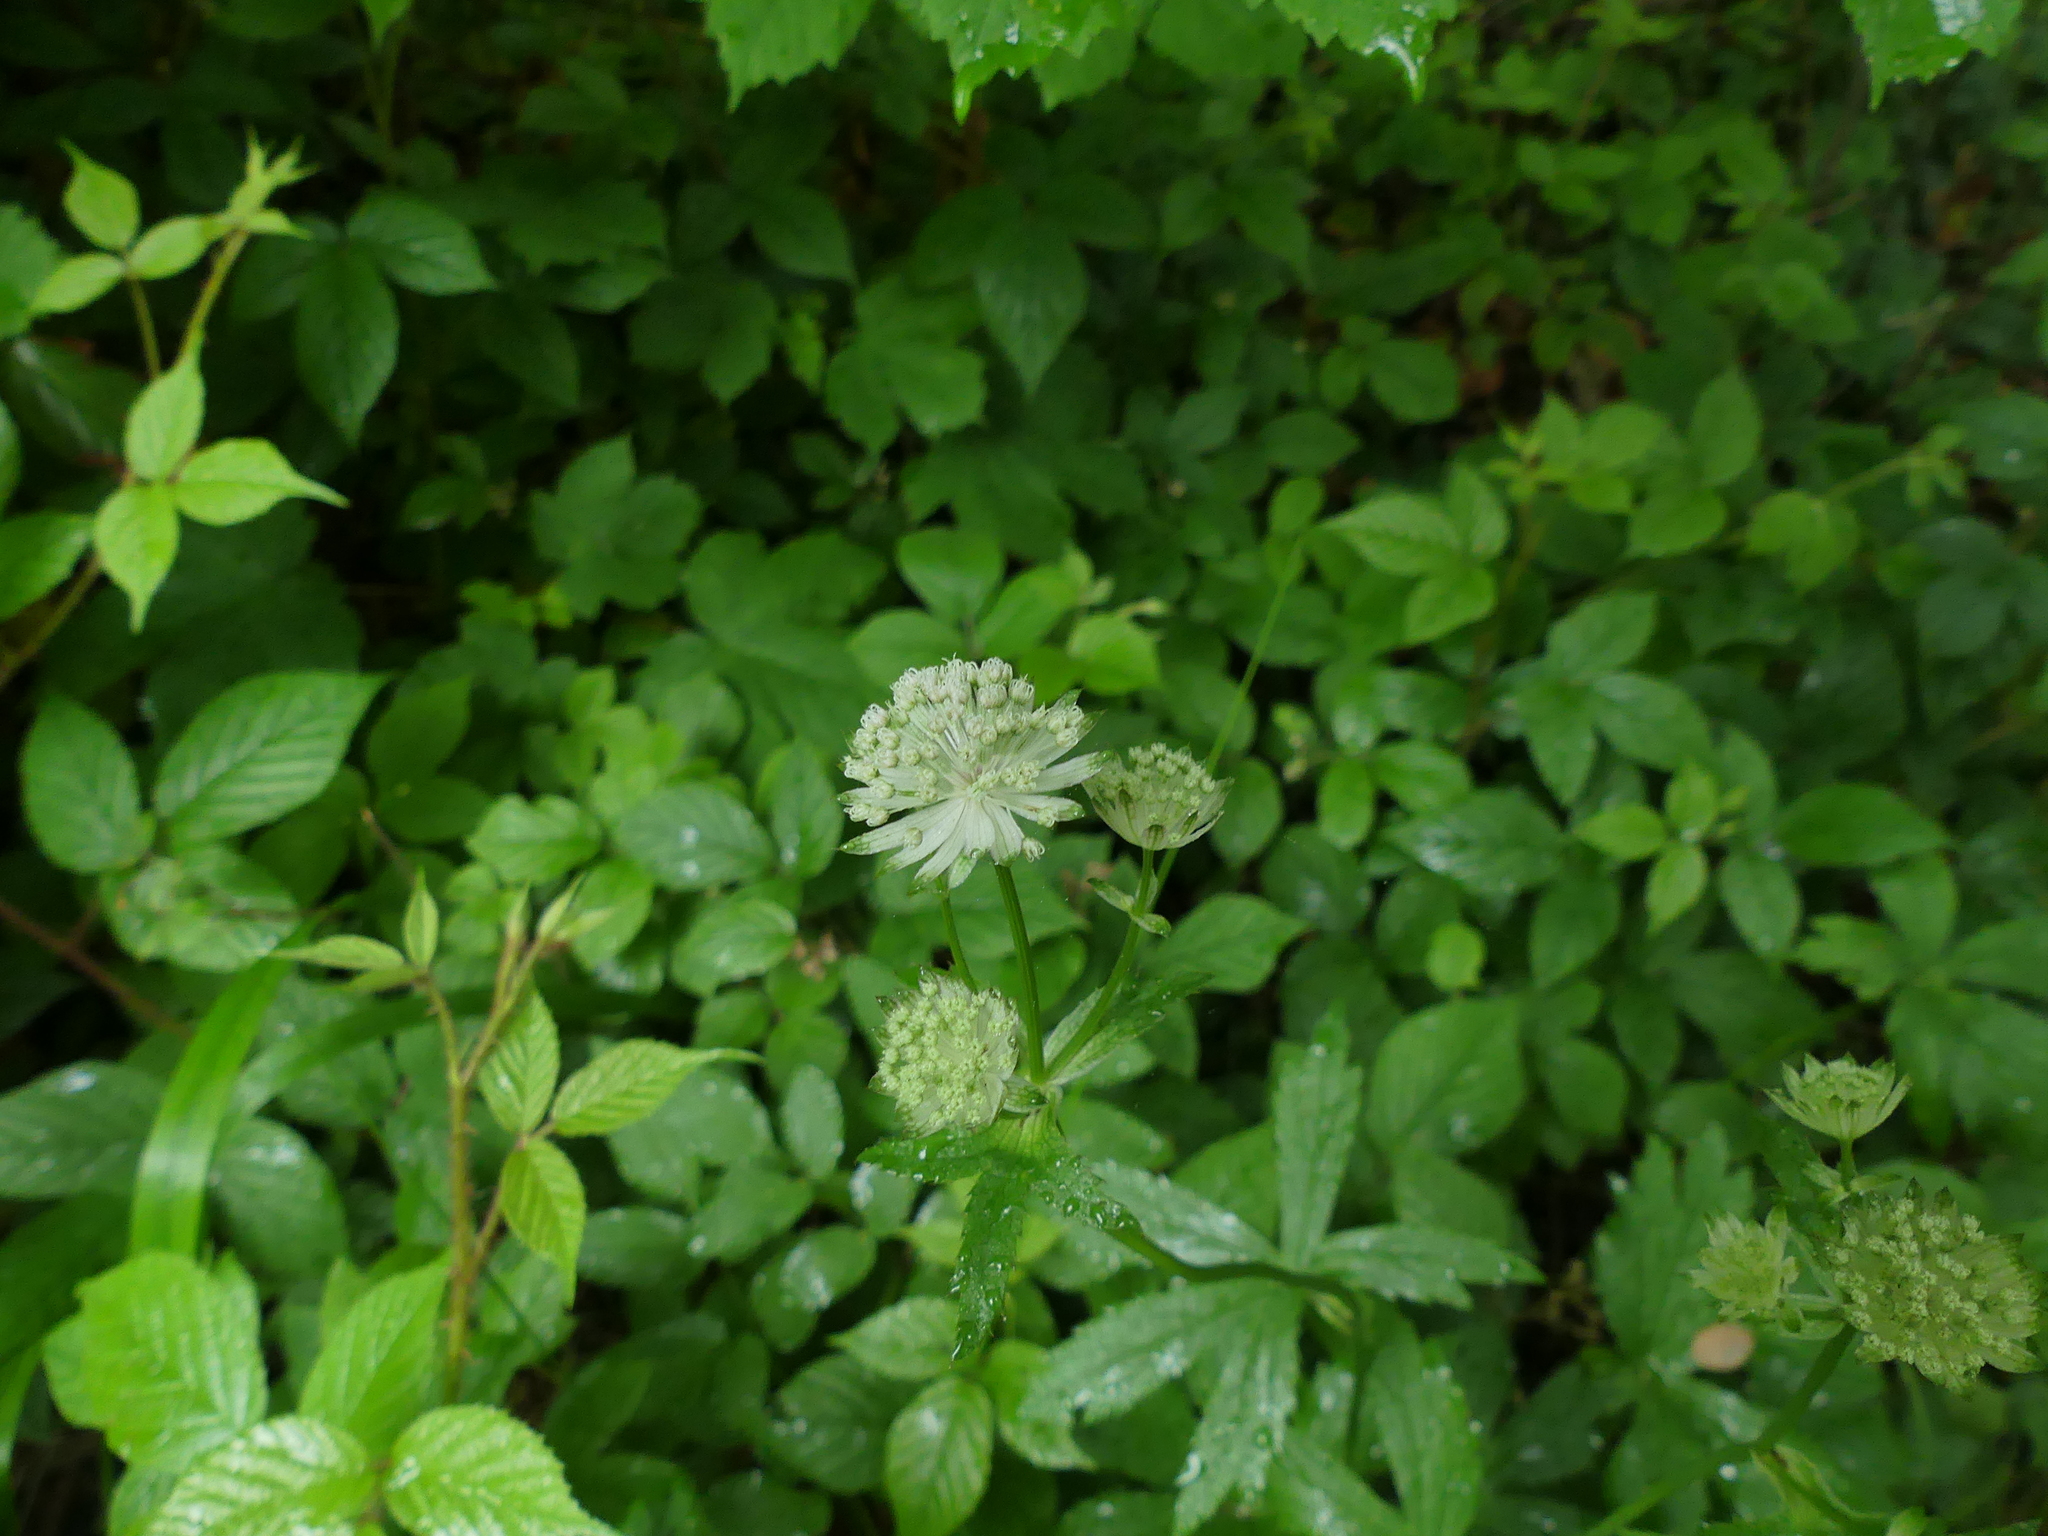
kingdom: Plantae
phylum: Tracheophyta
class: Magnoliopsida
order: Apiales
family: Apiaceae
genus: Astrantia
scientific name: Astrantia major
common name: Greater masterwort
